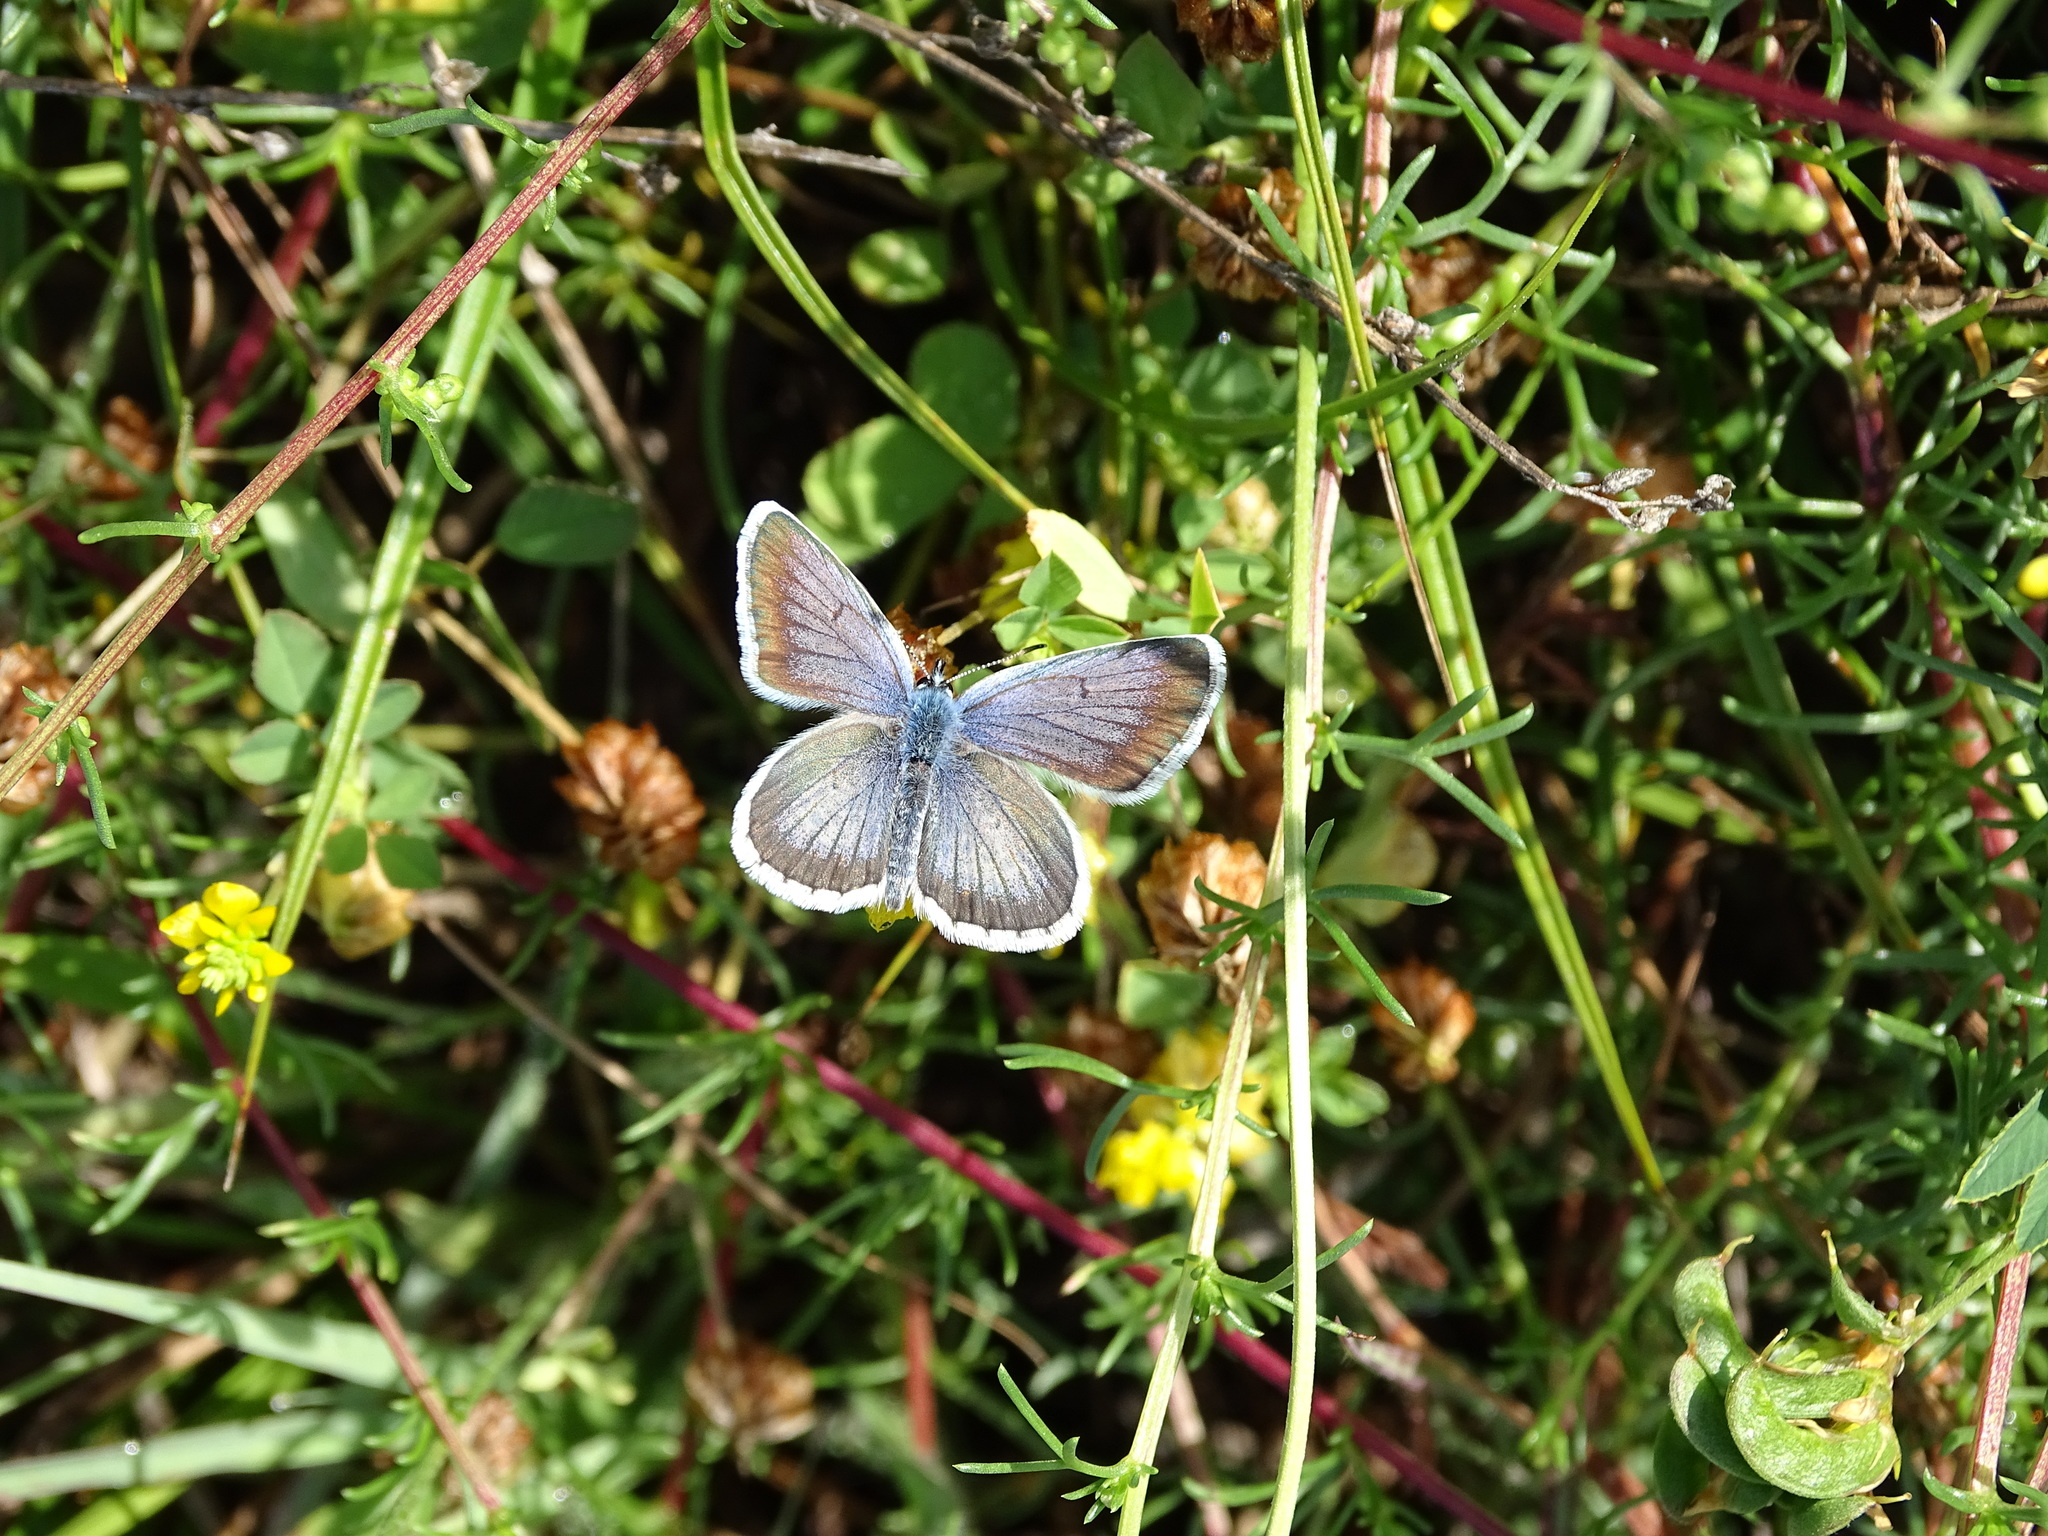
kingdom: Animalia
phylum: Arthropoda
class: Insecta
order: Lepidoptera
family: Lycaenidae
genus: Plebejus
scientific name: Plebejus argus
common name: Silver-studded blue
